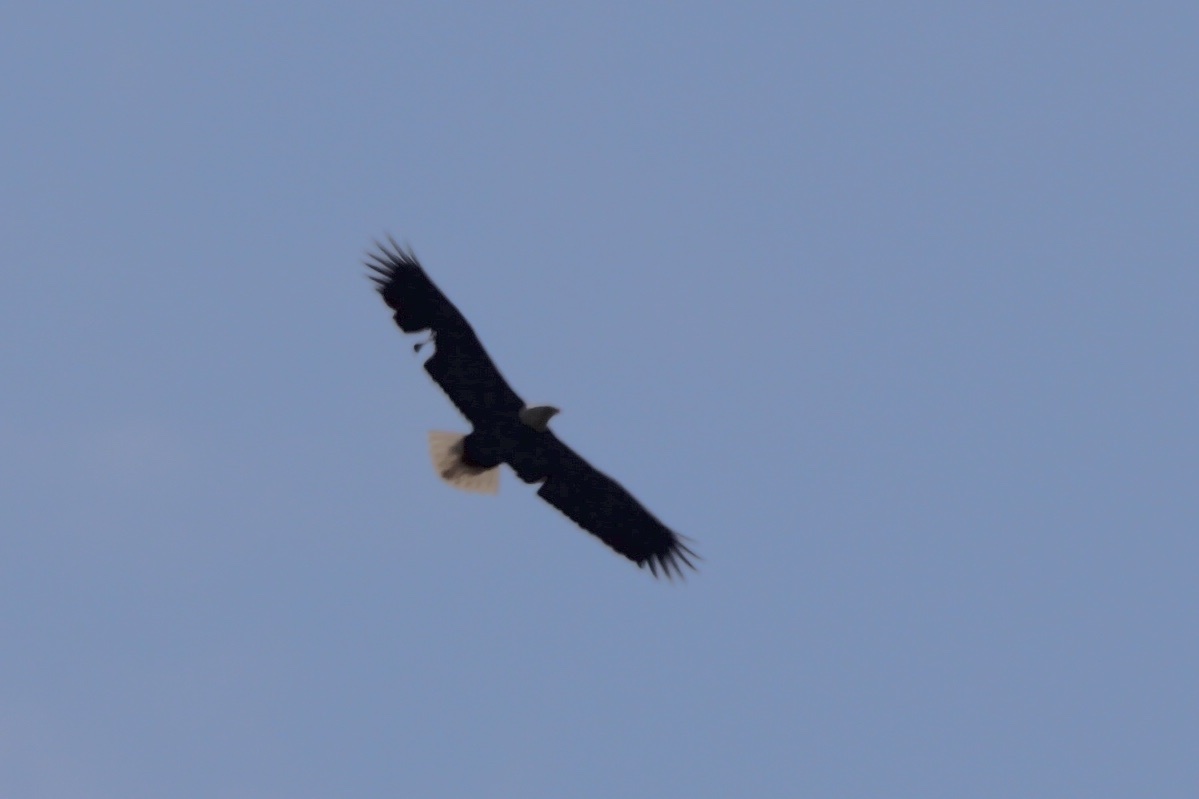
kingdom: Animalia
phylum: Chordata
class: Aves
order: Accipitriformes
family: Accipitridae
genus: Haliaeetus
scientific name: Haliaeetus leucocephalus
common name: Bald eagle
